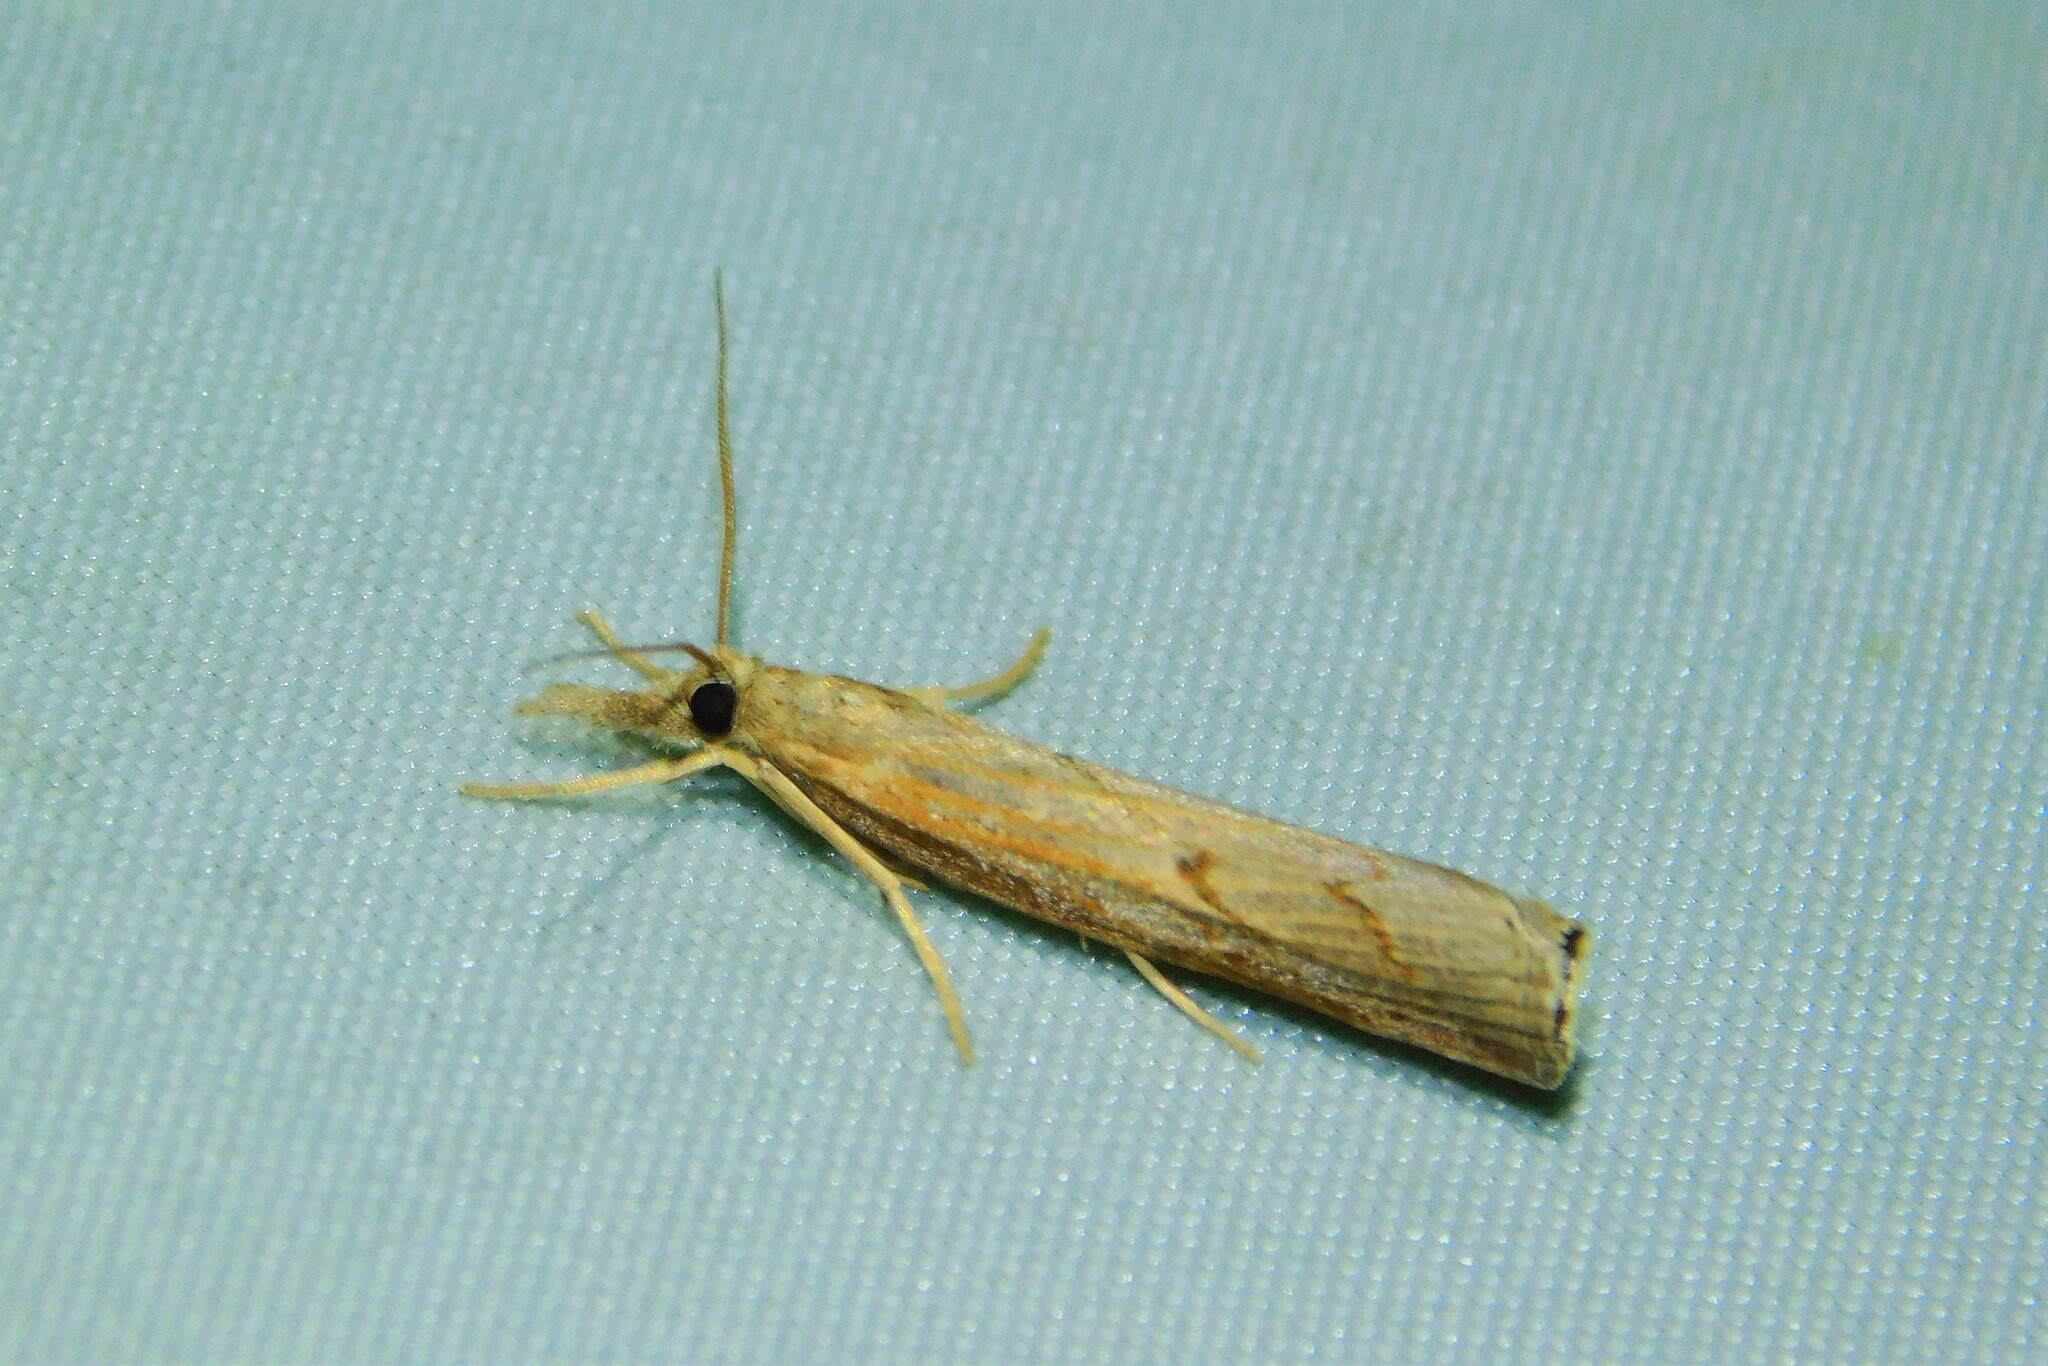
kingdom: Animalia
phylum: Arthropoda
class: Insecta
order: Lepidoptera
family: Crambidae
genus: Pediasia
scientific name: Pediasia contaminella
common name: Waste grass-veneer
